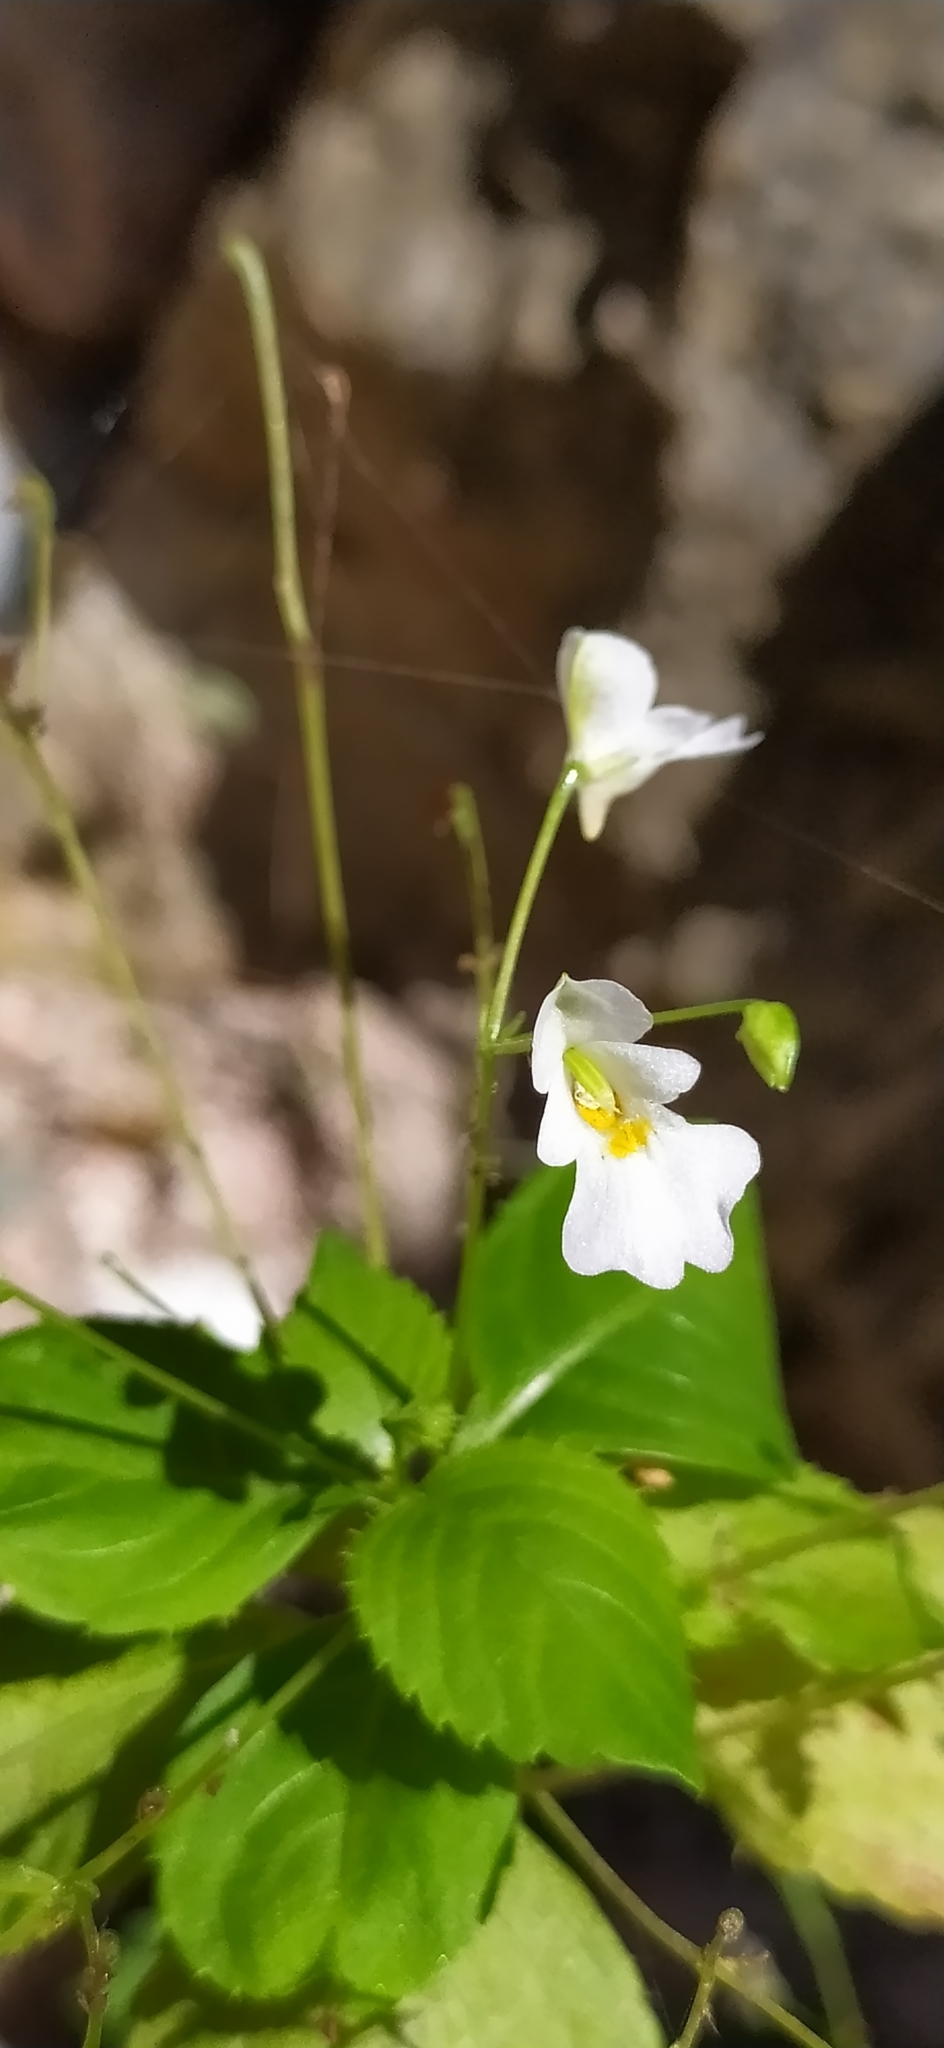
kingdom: Plantae
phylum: Tracheophyta
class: Magnoliopsida
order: Ericales
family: Balsaminaceae
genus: Impatiens
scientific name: Impatiens parviflora
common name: Small balsam
